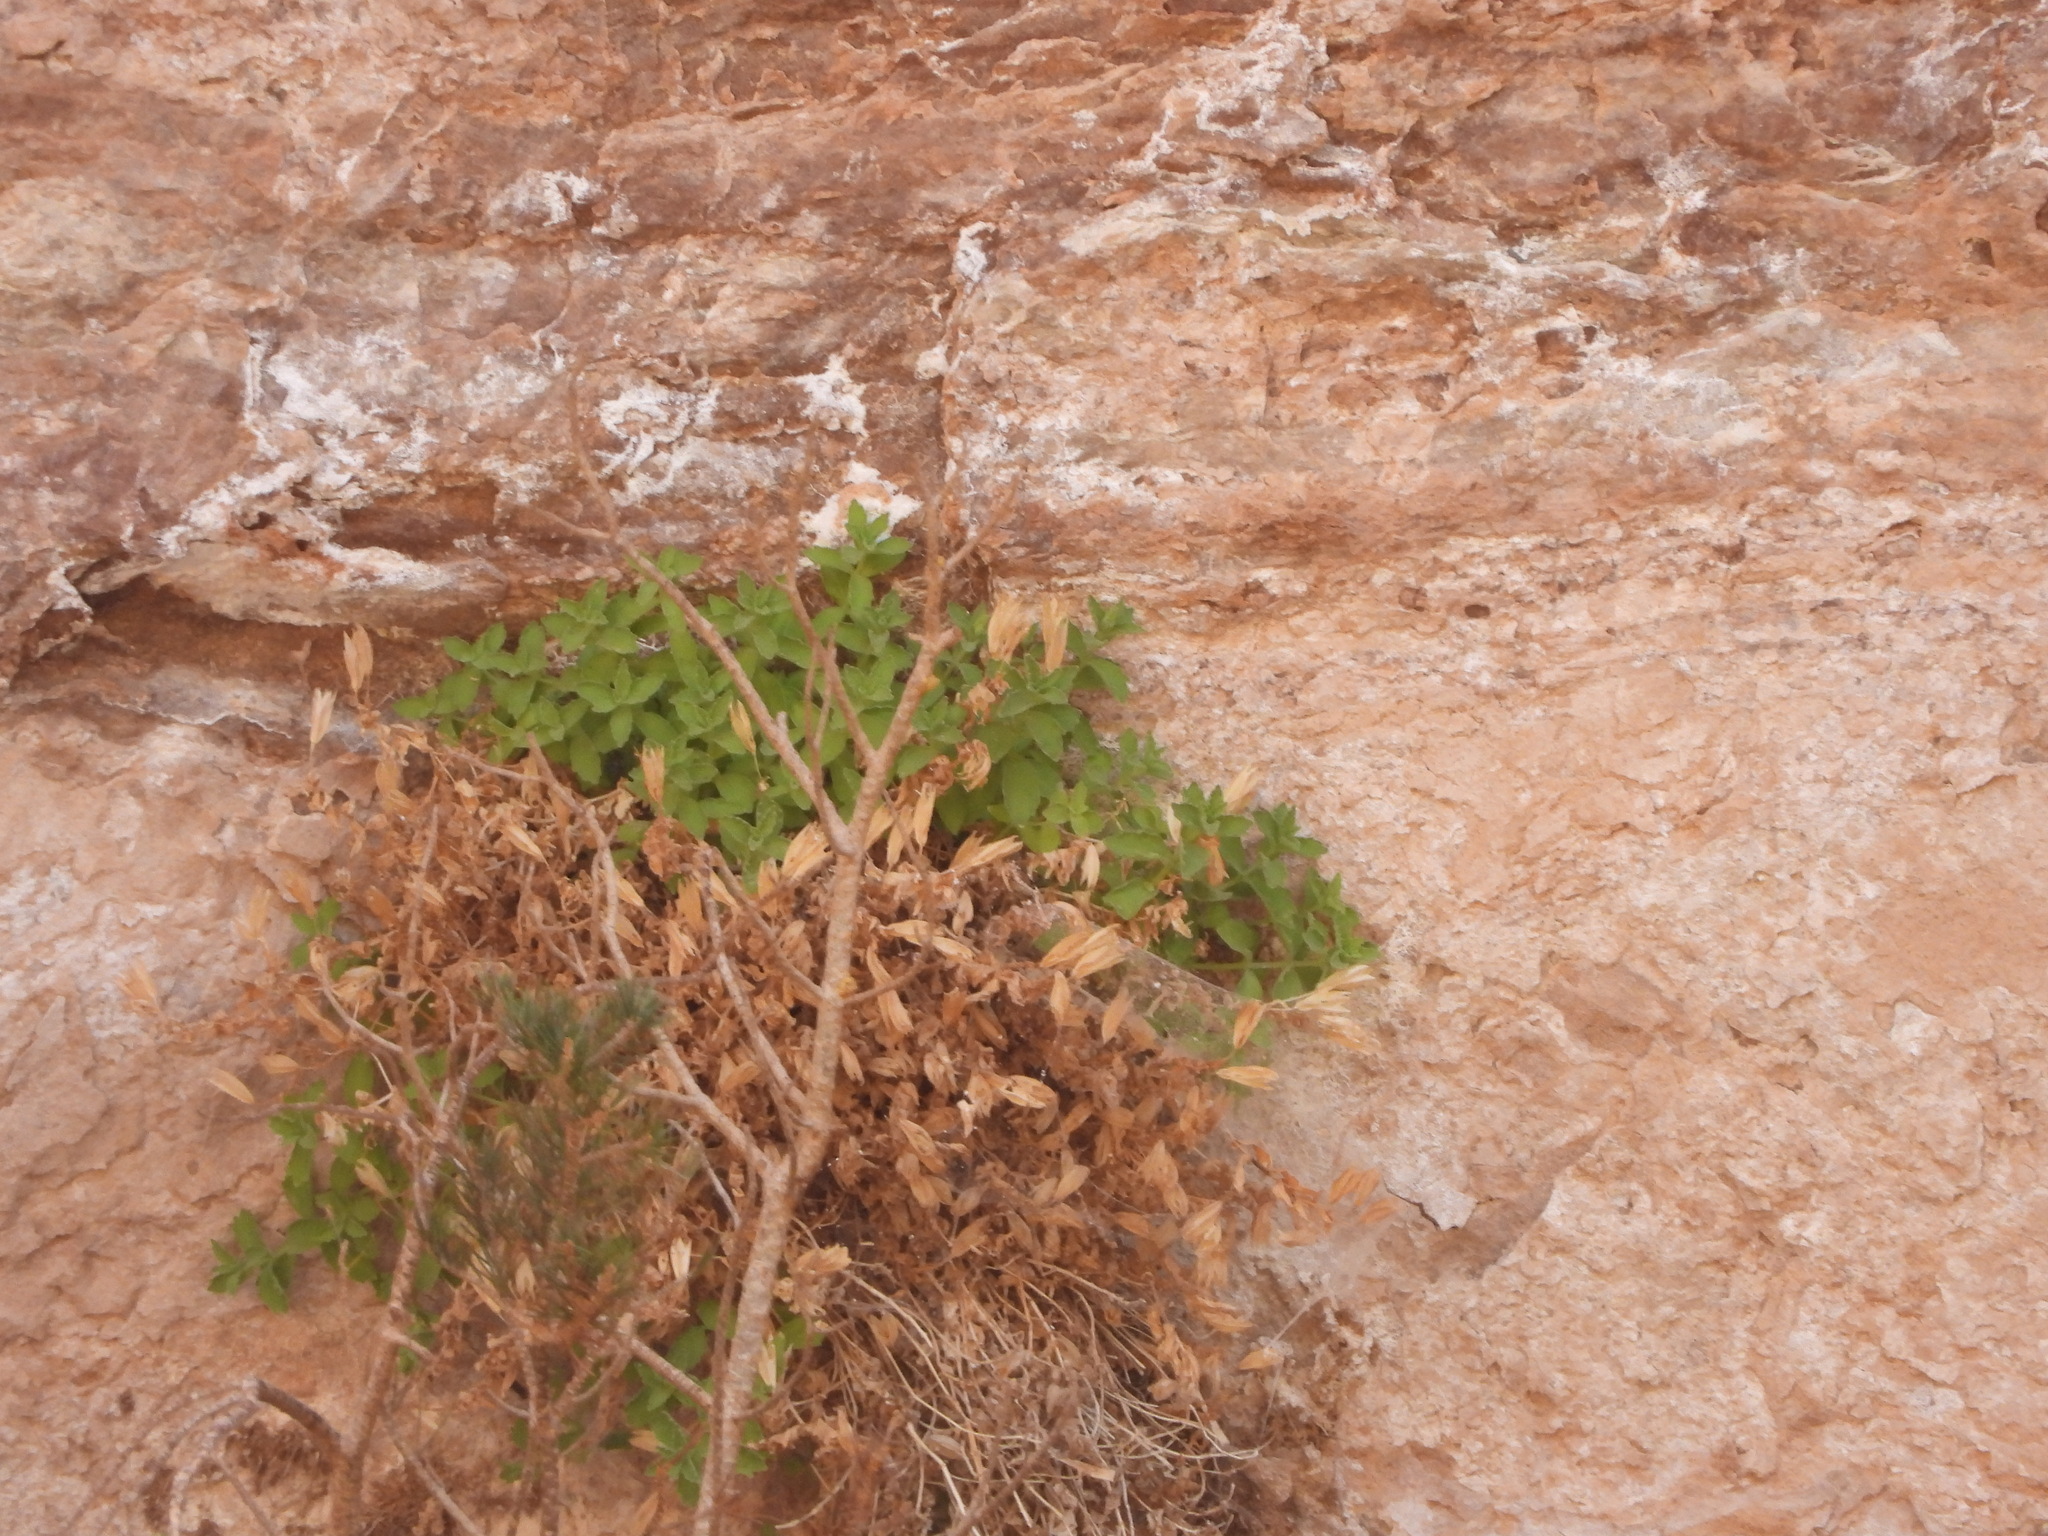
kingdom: Plantae
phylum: Tracheophyta
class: Magnoliopsida
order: Lamiales
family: Phrymaceae
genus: Erythranthe
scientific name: Erythranthe eastwoodiae
